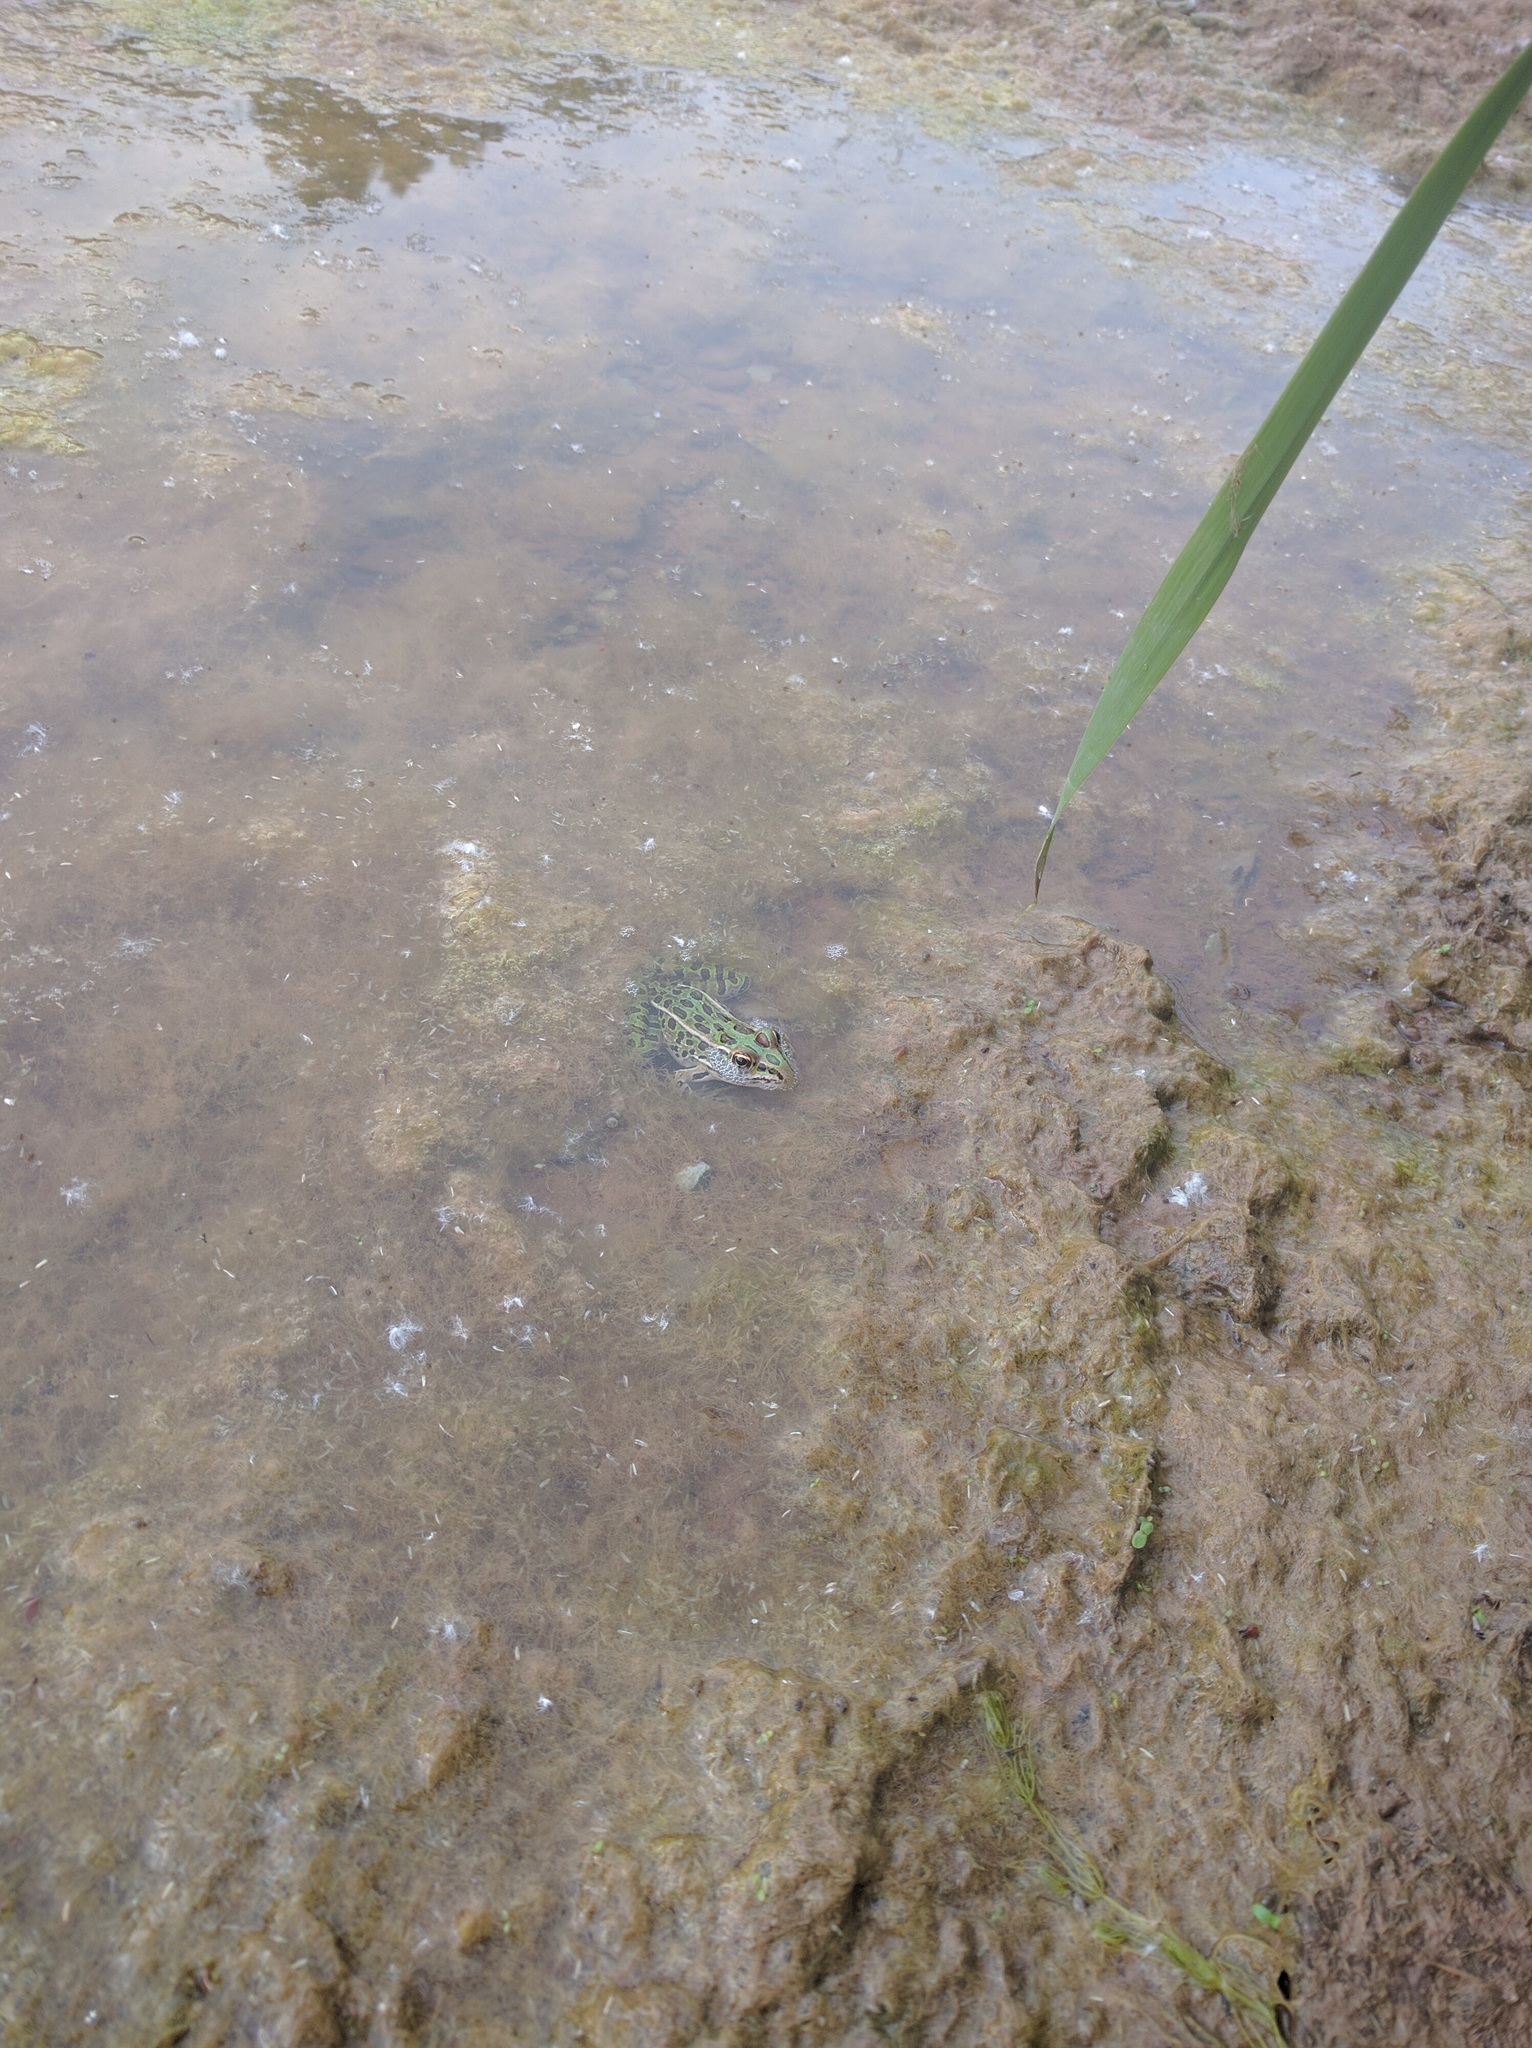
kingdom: Animalia
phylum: Chordata
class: Amphibia
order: Anura
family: Ranidae
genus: Lithobates
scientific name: Lithobates pipiens
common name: Northern leopard frog
